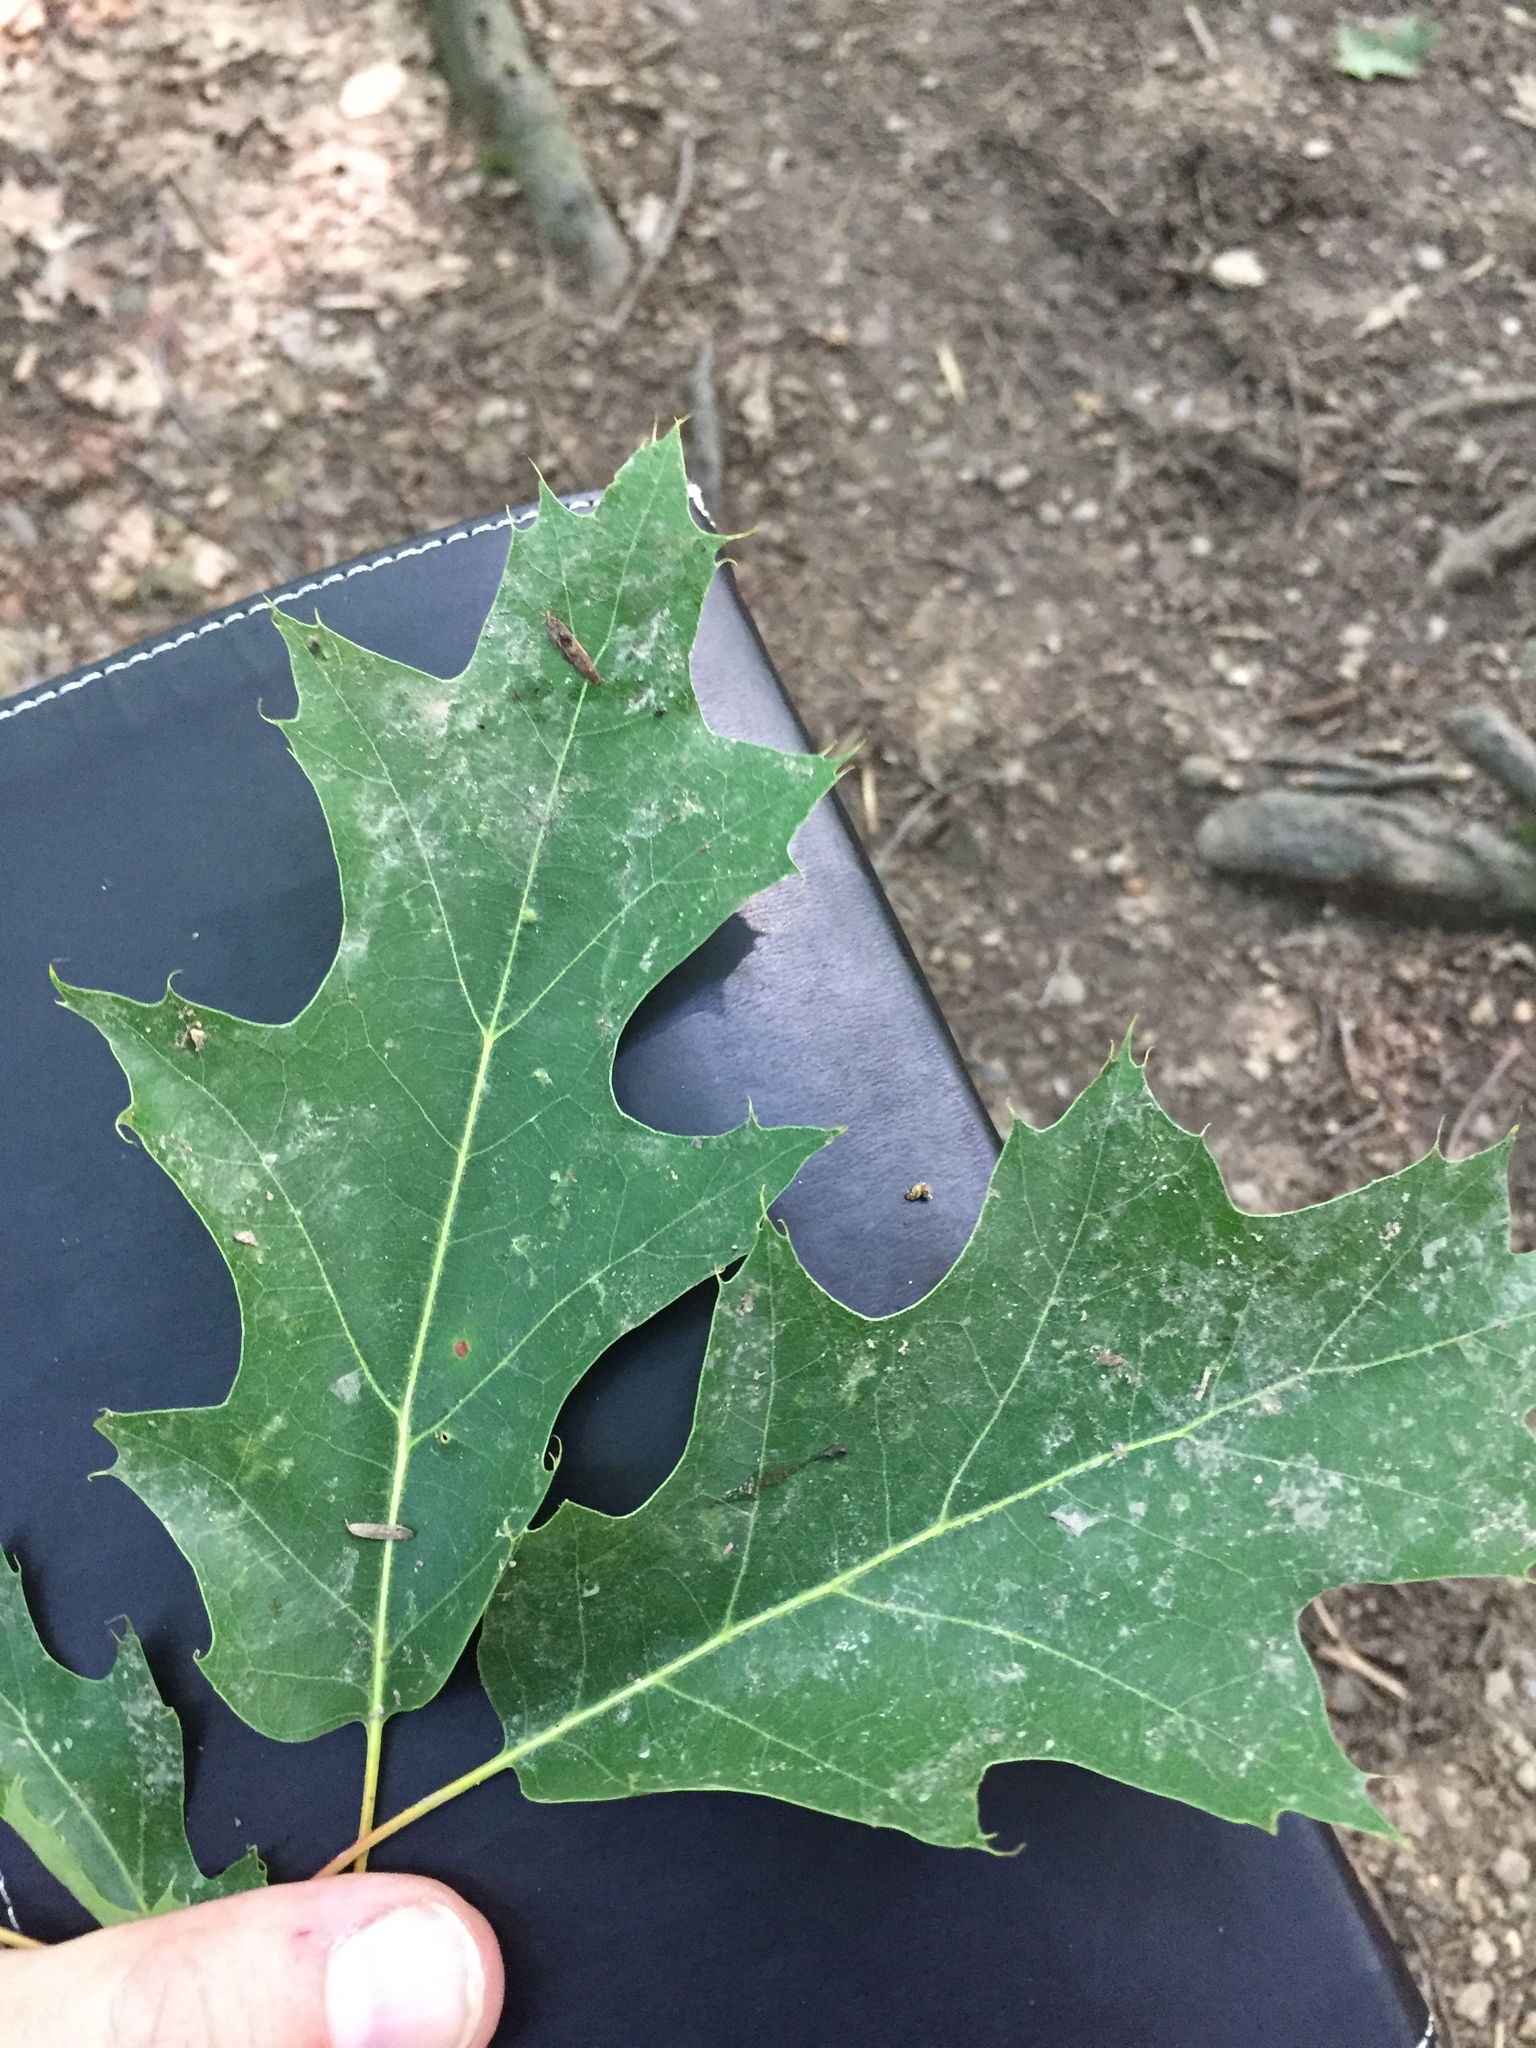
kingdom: Plantae
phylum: Tracheophyta
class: Magnoliopsida
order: Fagales
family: Fagaceae
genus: Quercus
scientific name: Quercus rubra
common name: Red oak
